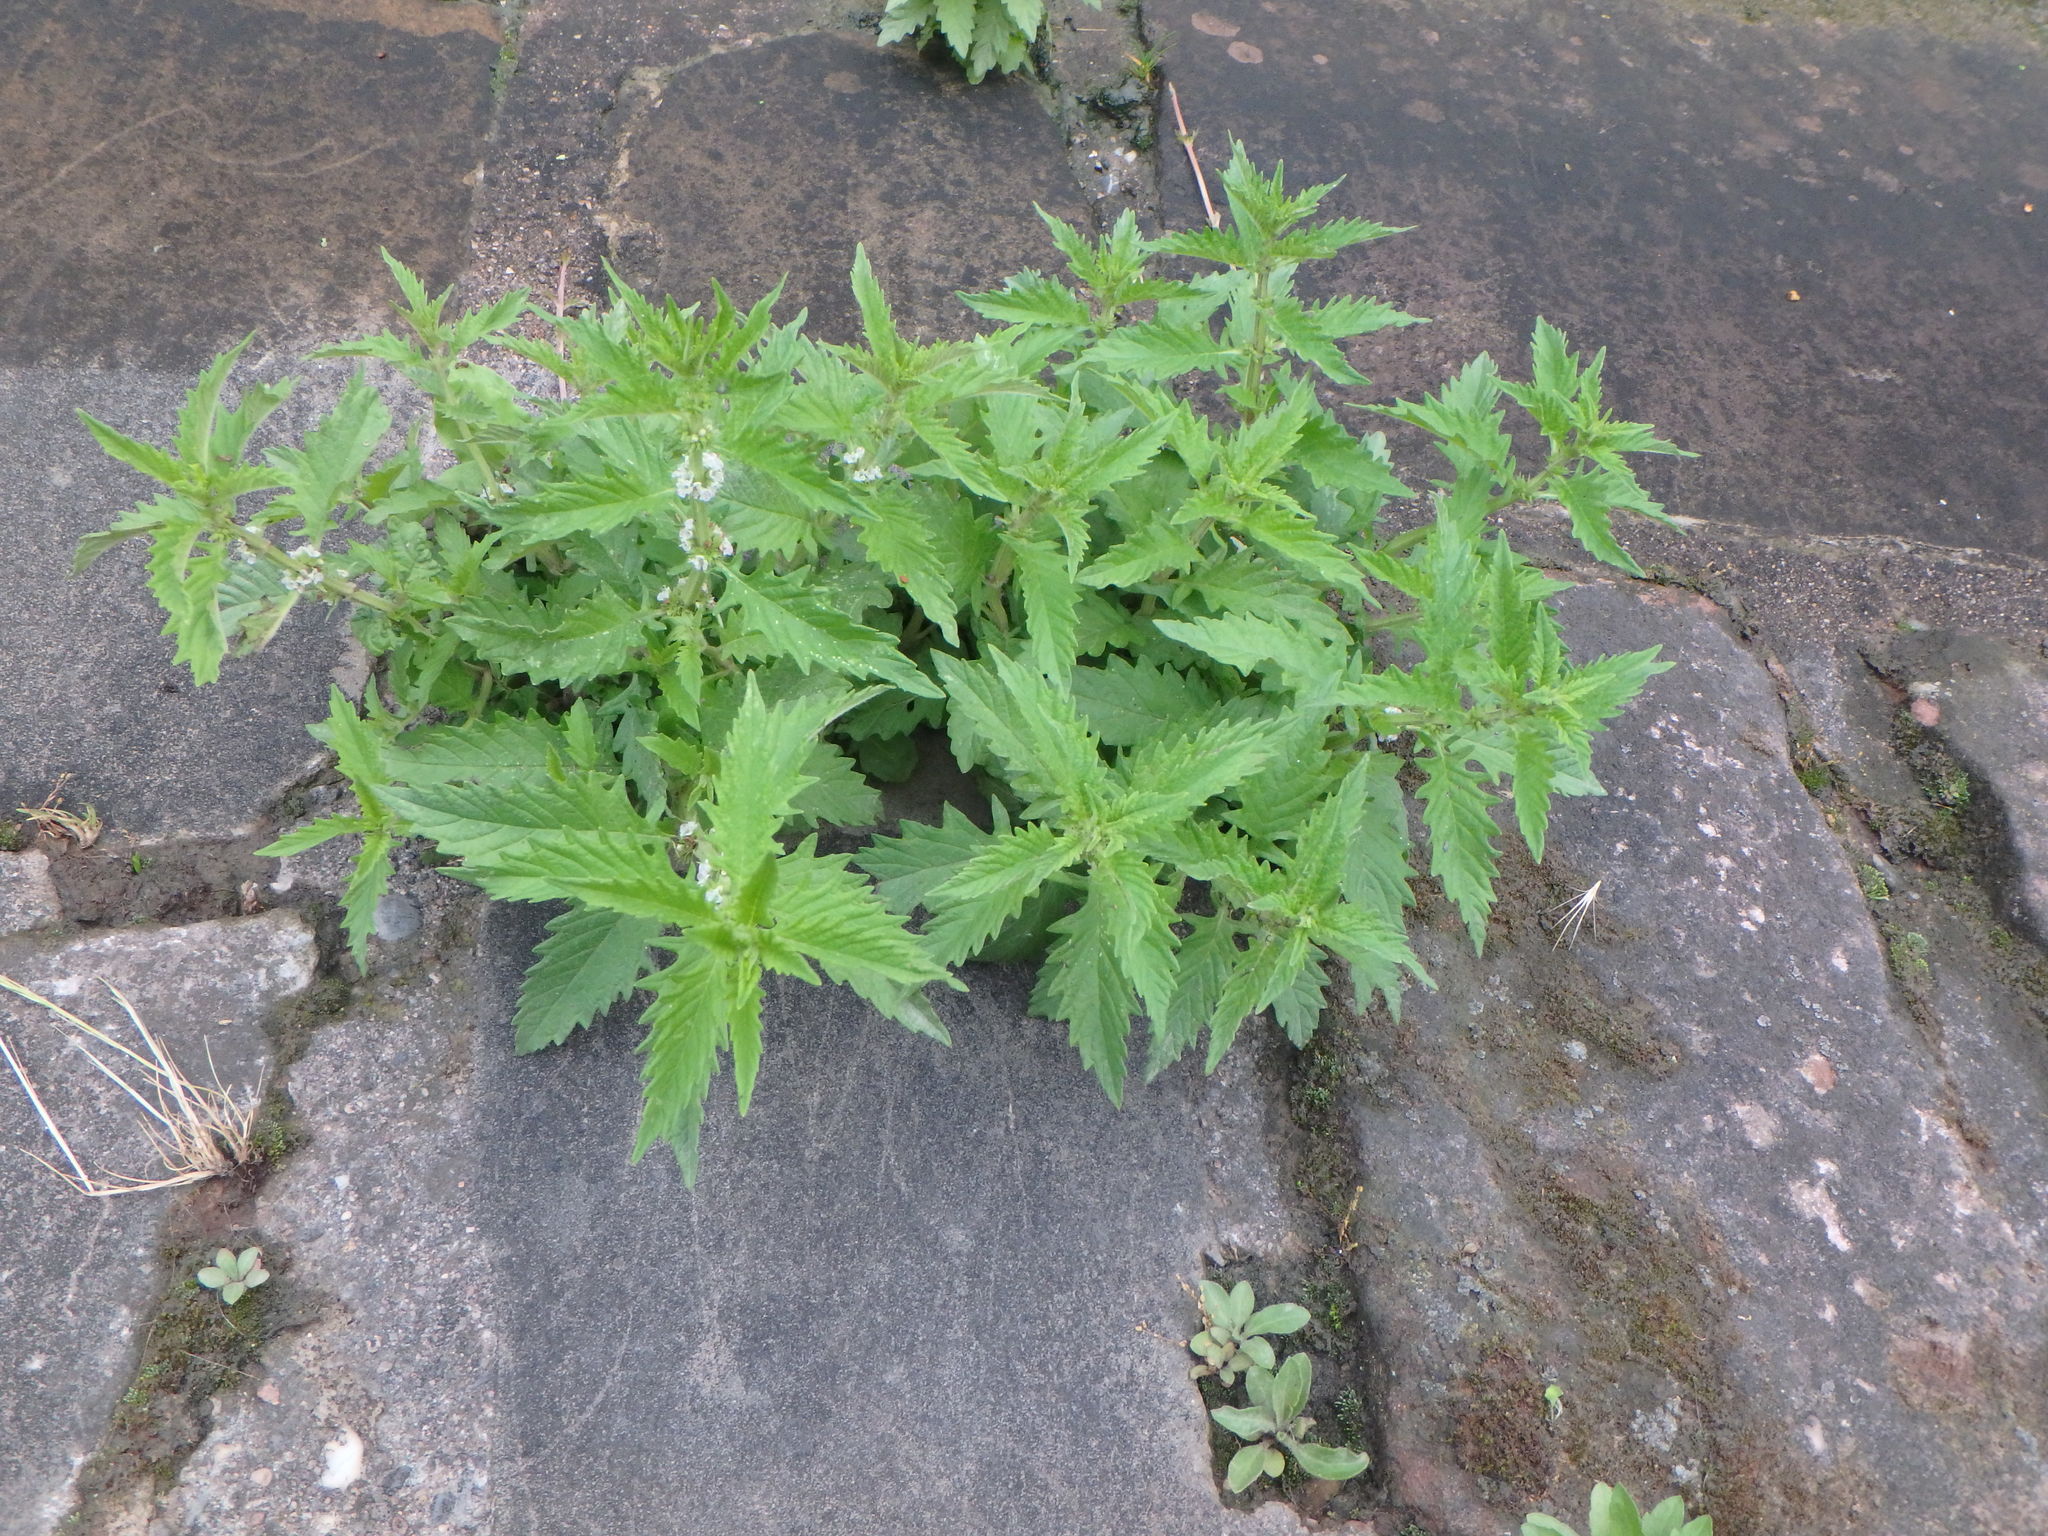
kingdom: Plantae
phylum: Tracheophyta
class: Magnoliopsida
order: Lamiales
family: Lamiaceae
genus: Lycopus
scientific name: Lycopus europaeus
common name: European bugleweed
